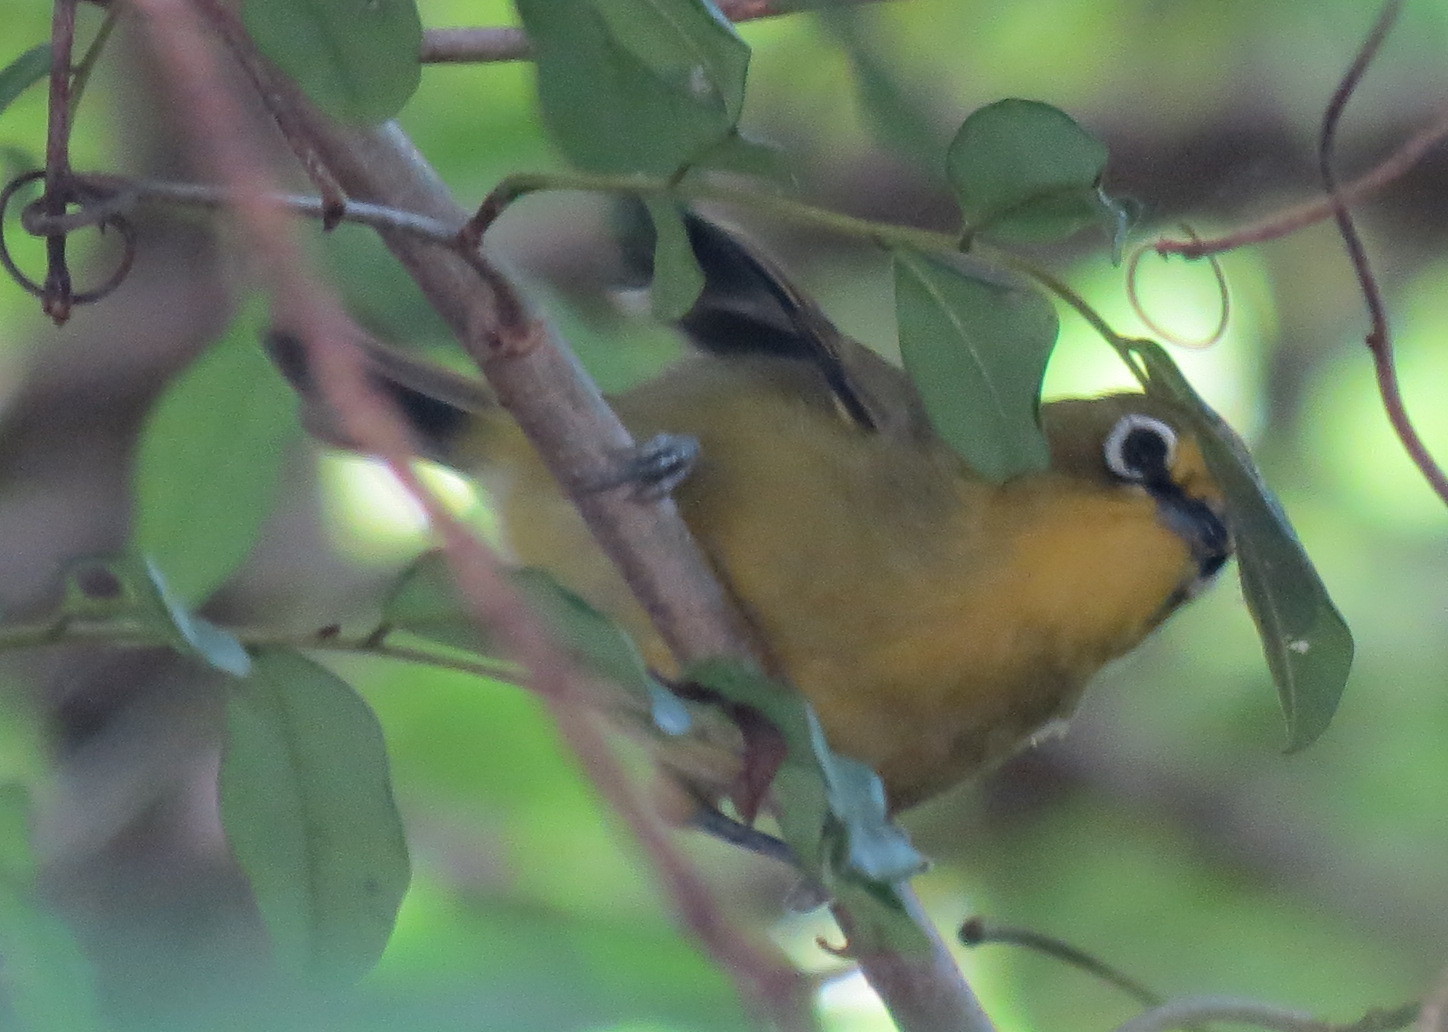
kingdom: Animalia
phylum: Chordata
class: Aves
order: Passeriformes
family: Zosteropidae
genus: Zosterops
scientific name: Zosterops virens
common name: Cape white-eye
